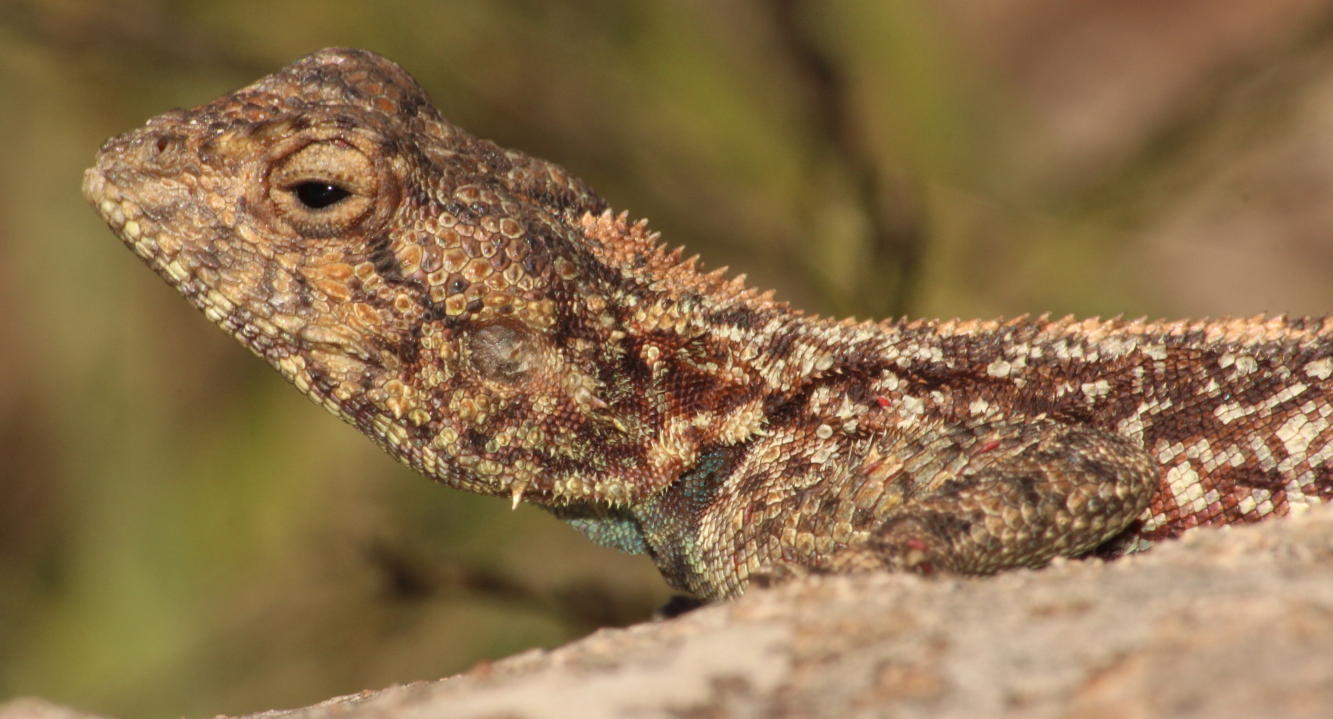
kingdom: Animalia
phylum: Chordata
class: Squamata
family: Agamidae
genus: Agama
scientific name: Agama atra
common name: Southern african rock agama
